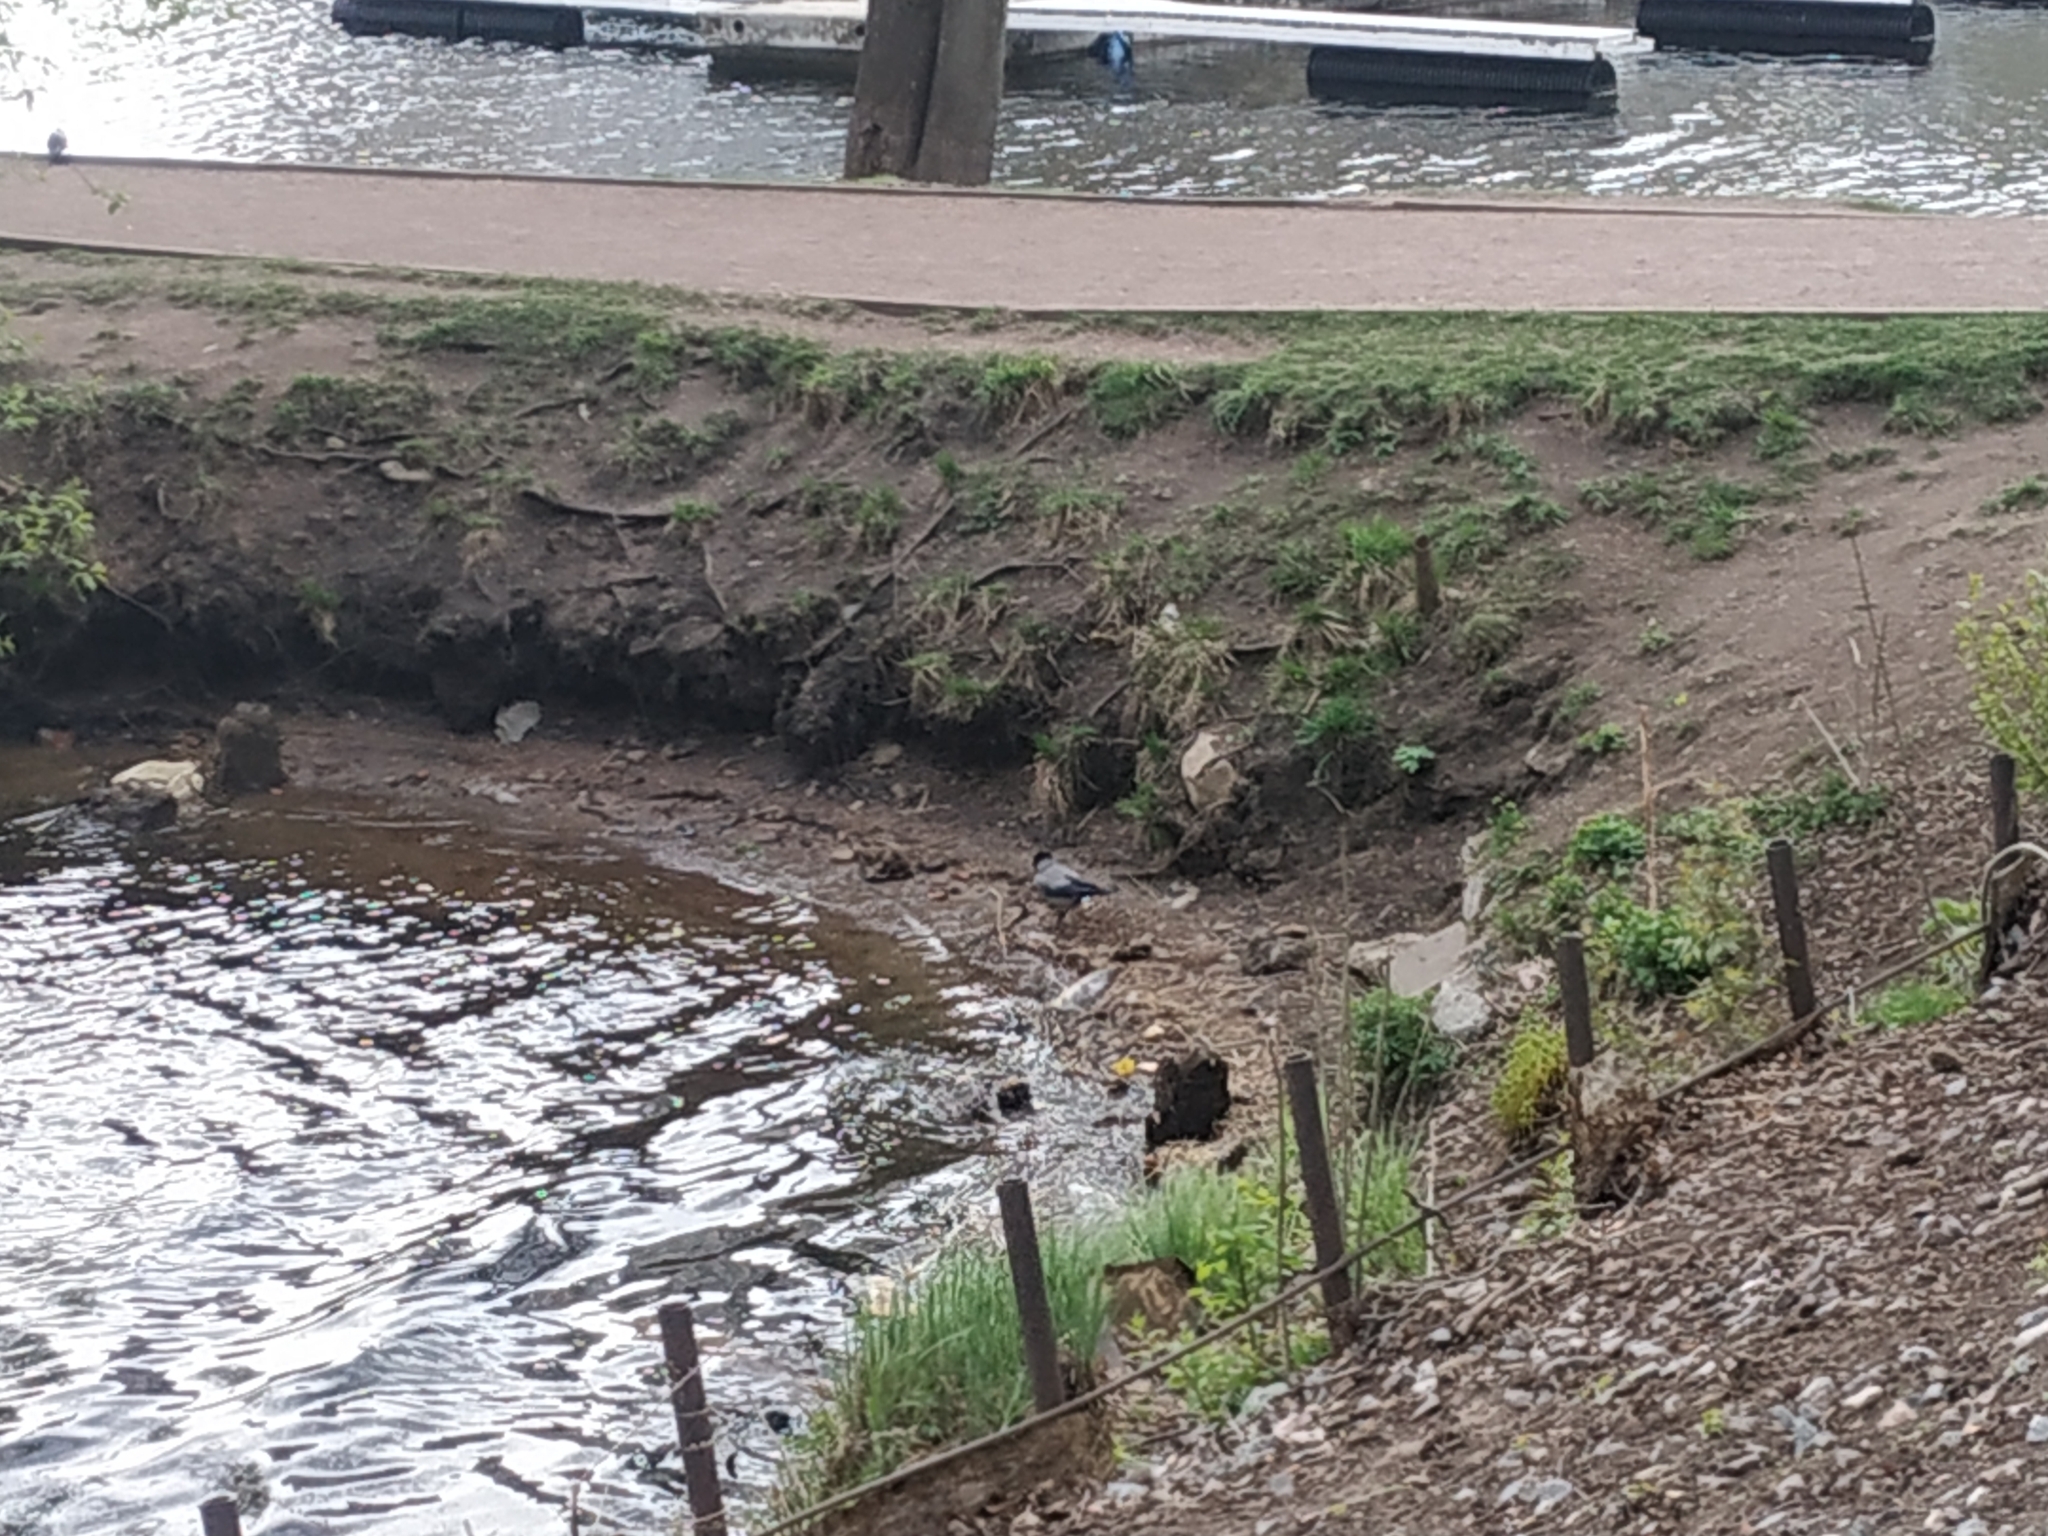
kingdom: Animalia
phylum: Chordata
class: Aves
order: Passeriformes
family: Corvidae
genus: Corvus
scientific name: Corvus cornix
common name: Hooded crow
